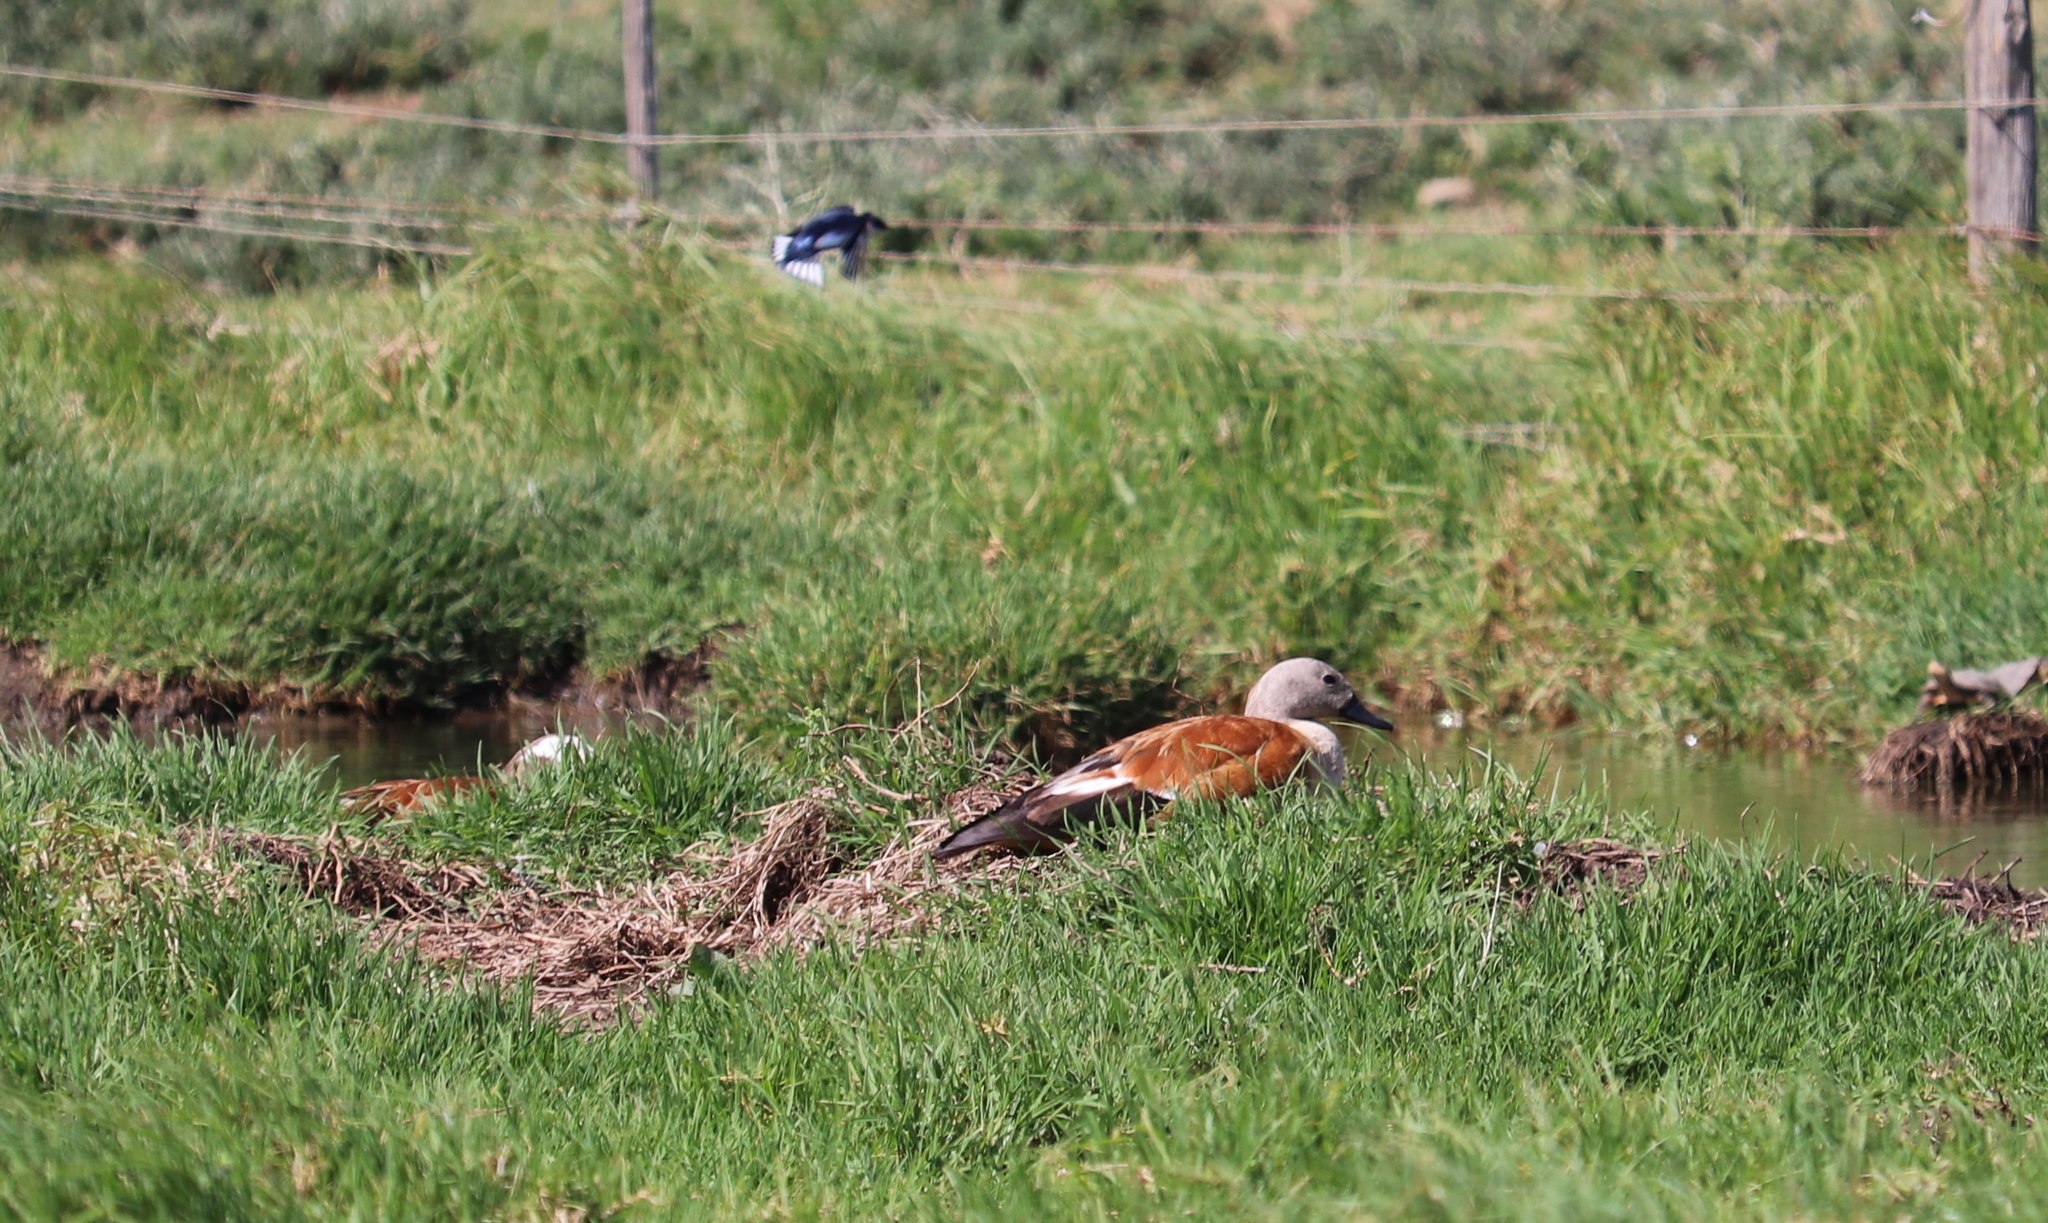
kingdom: Animalia
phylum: Chordata
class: Aves
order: Anseriformes
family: Anatidae
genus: Tadorna
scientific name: Tadorna cana
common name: South african shelduck
